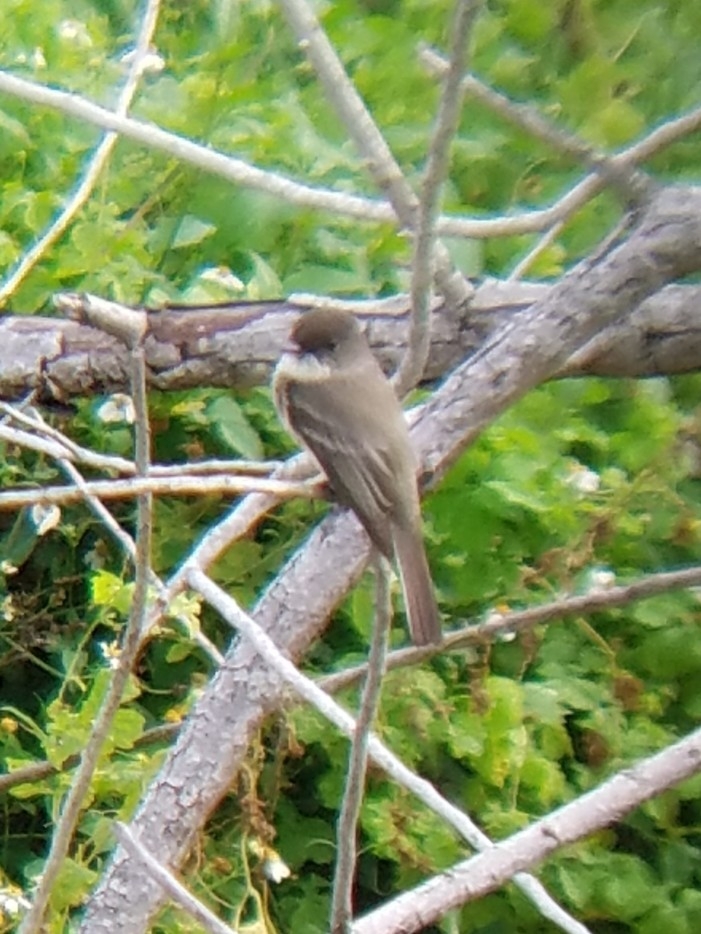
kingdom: Animalia
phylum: Chordata
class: Aves
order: Passeriformes
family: Tyrannidae
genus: Sayornis
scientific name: Sayornis phoebe
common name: Eastern phoebe
